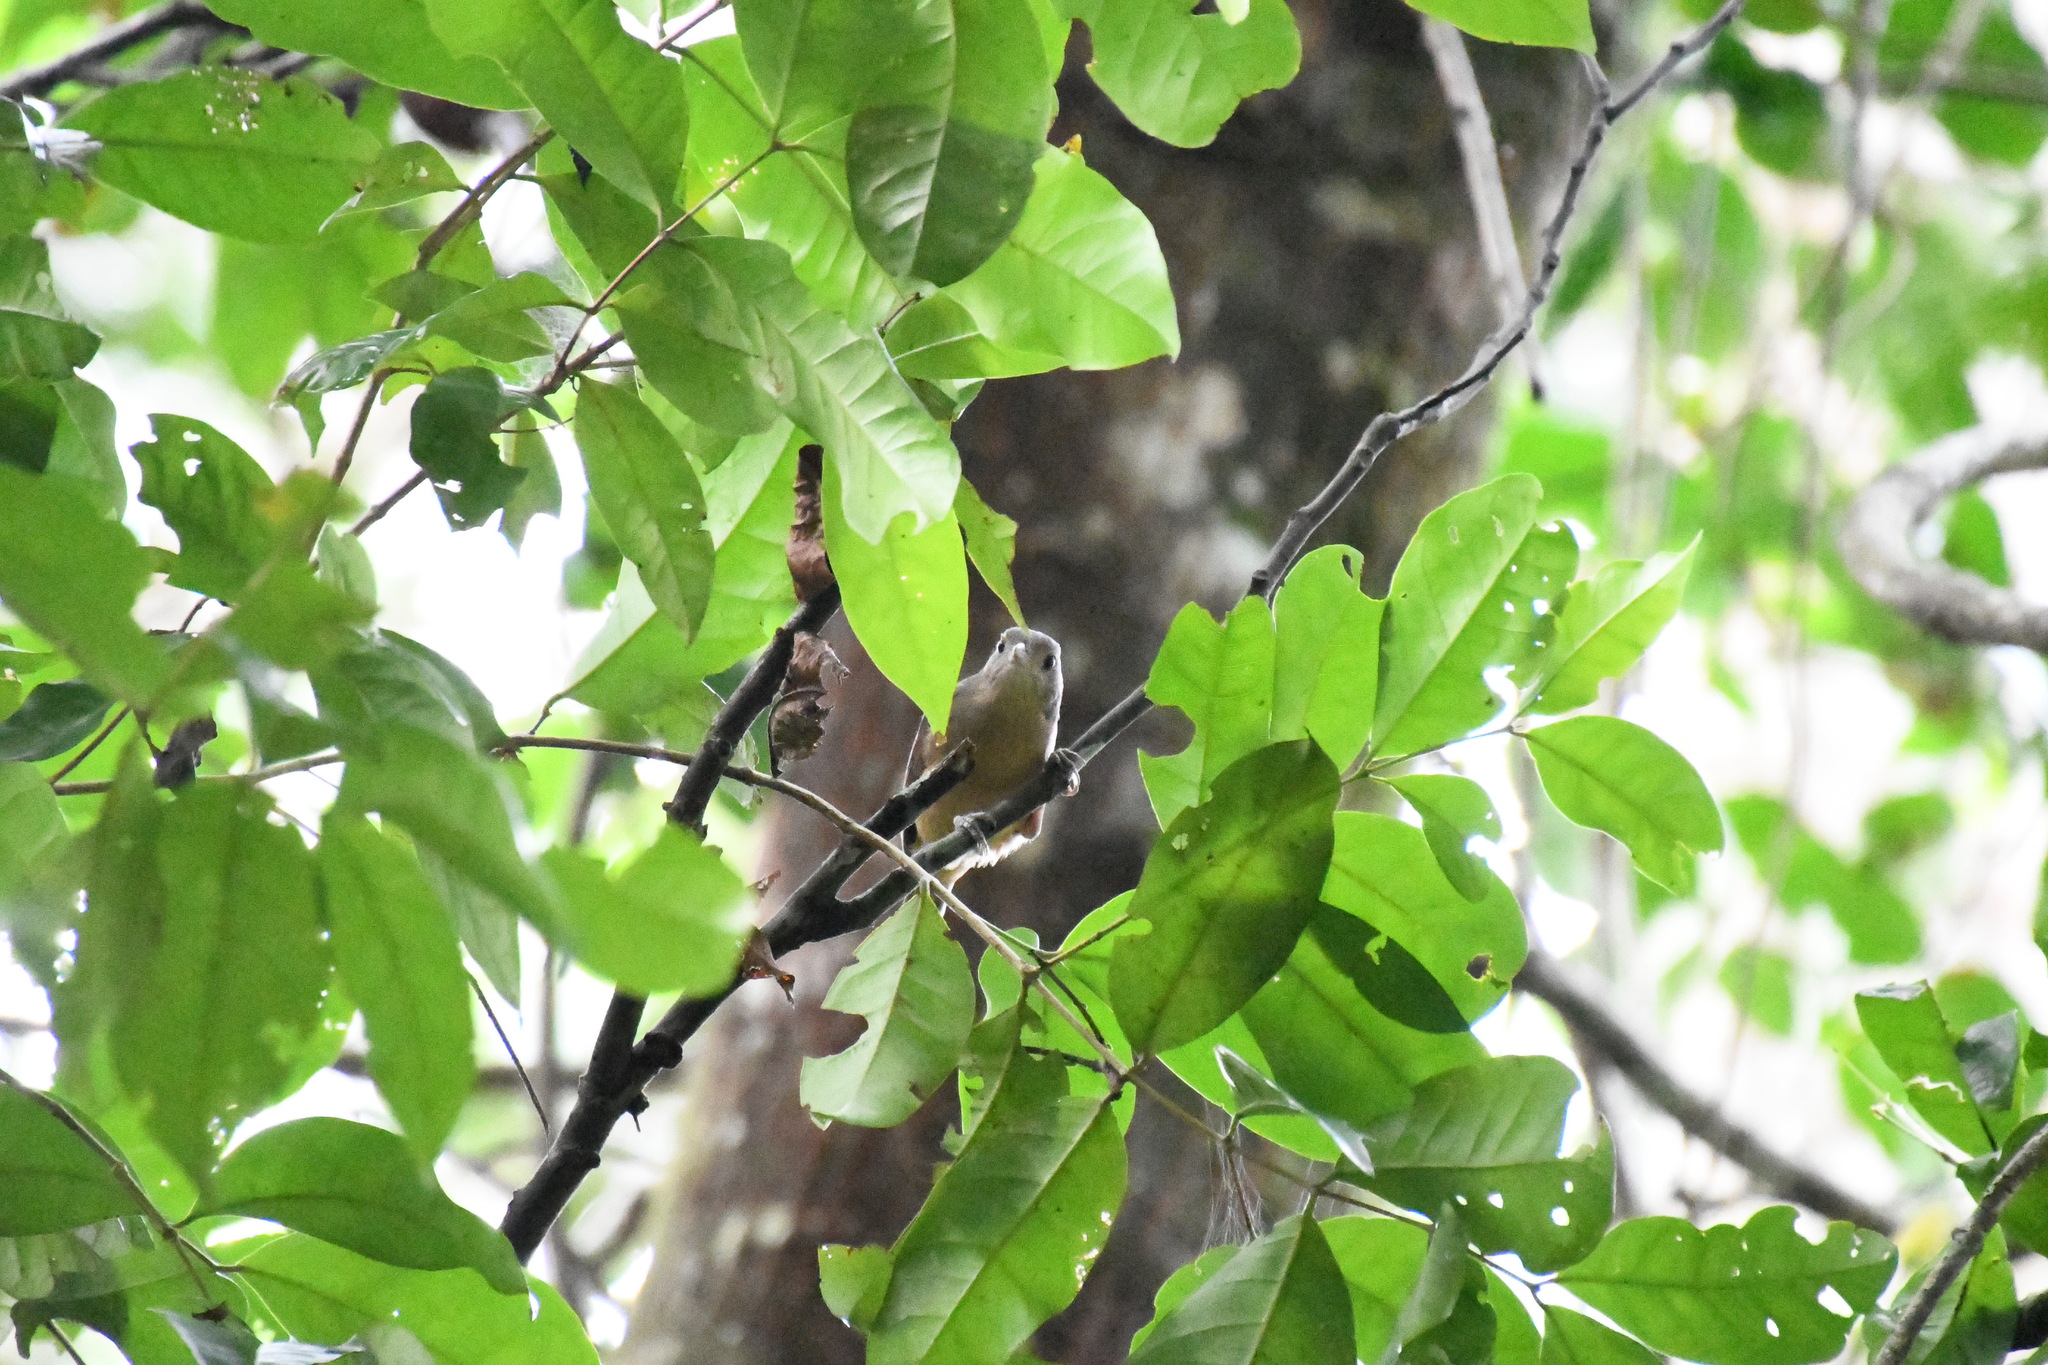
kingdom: Animalia
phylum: Chordata
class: Aves
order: Passeriformes
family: Pachycephalidae
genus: Colluricincla
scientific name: Colluricincla rufogaster
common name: Rufous shrikethrush
